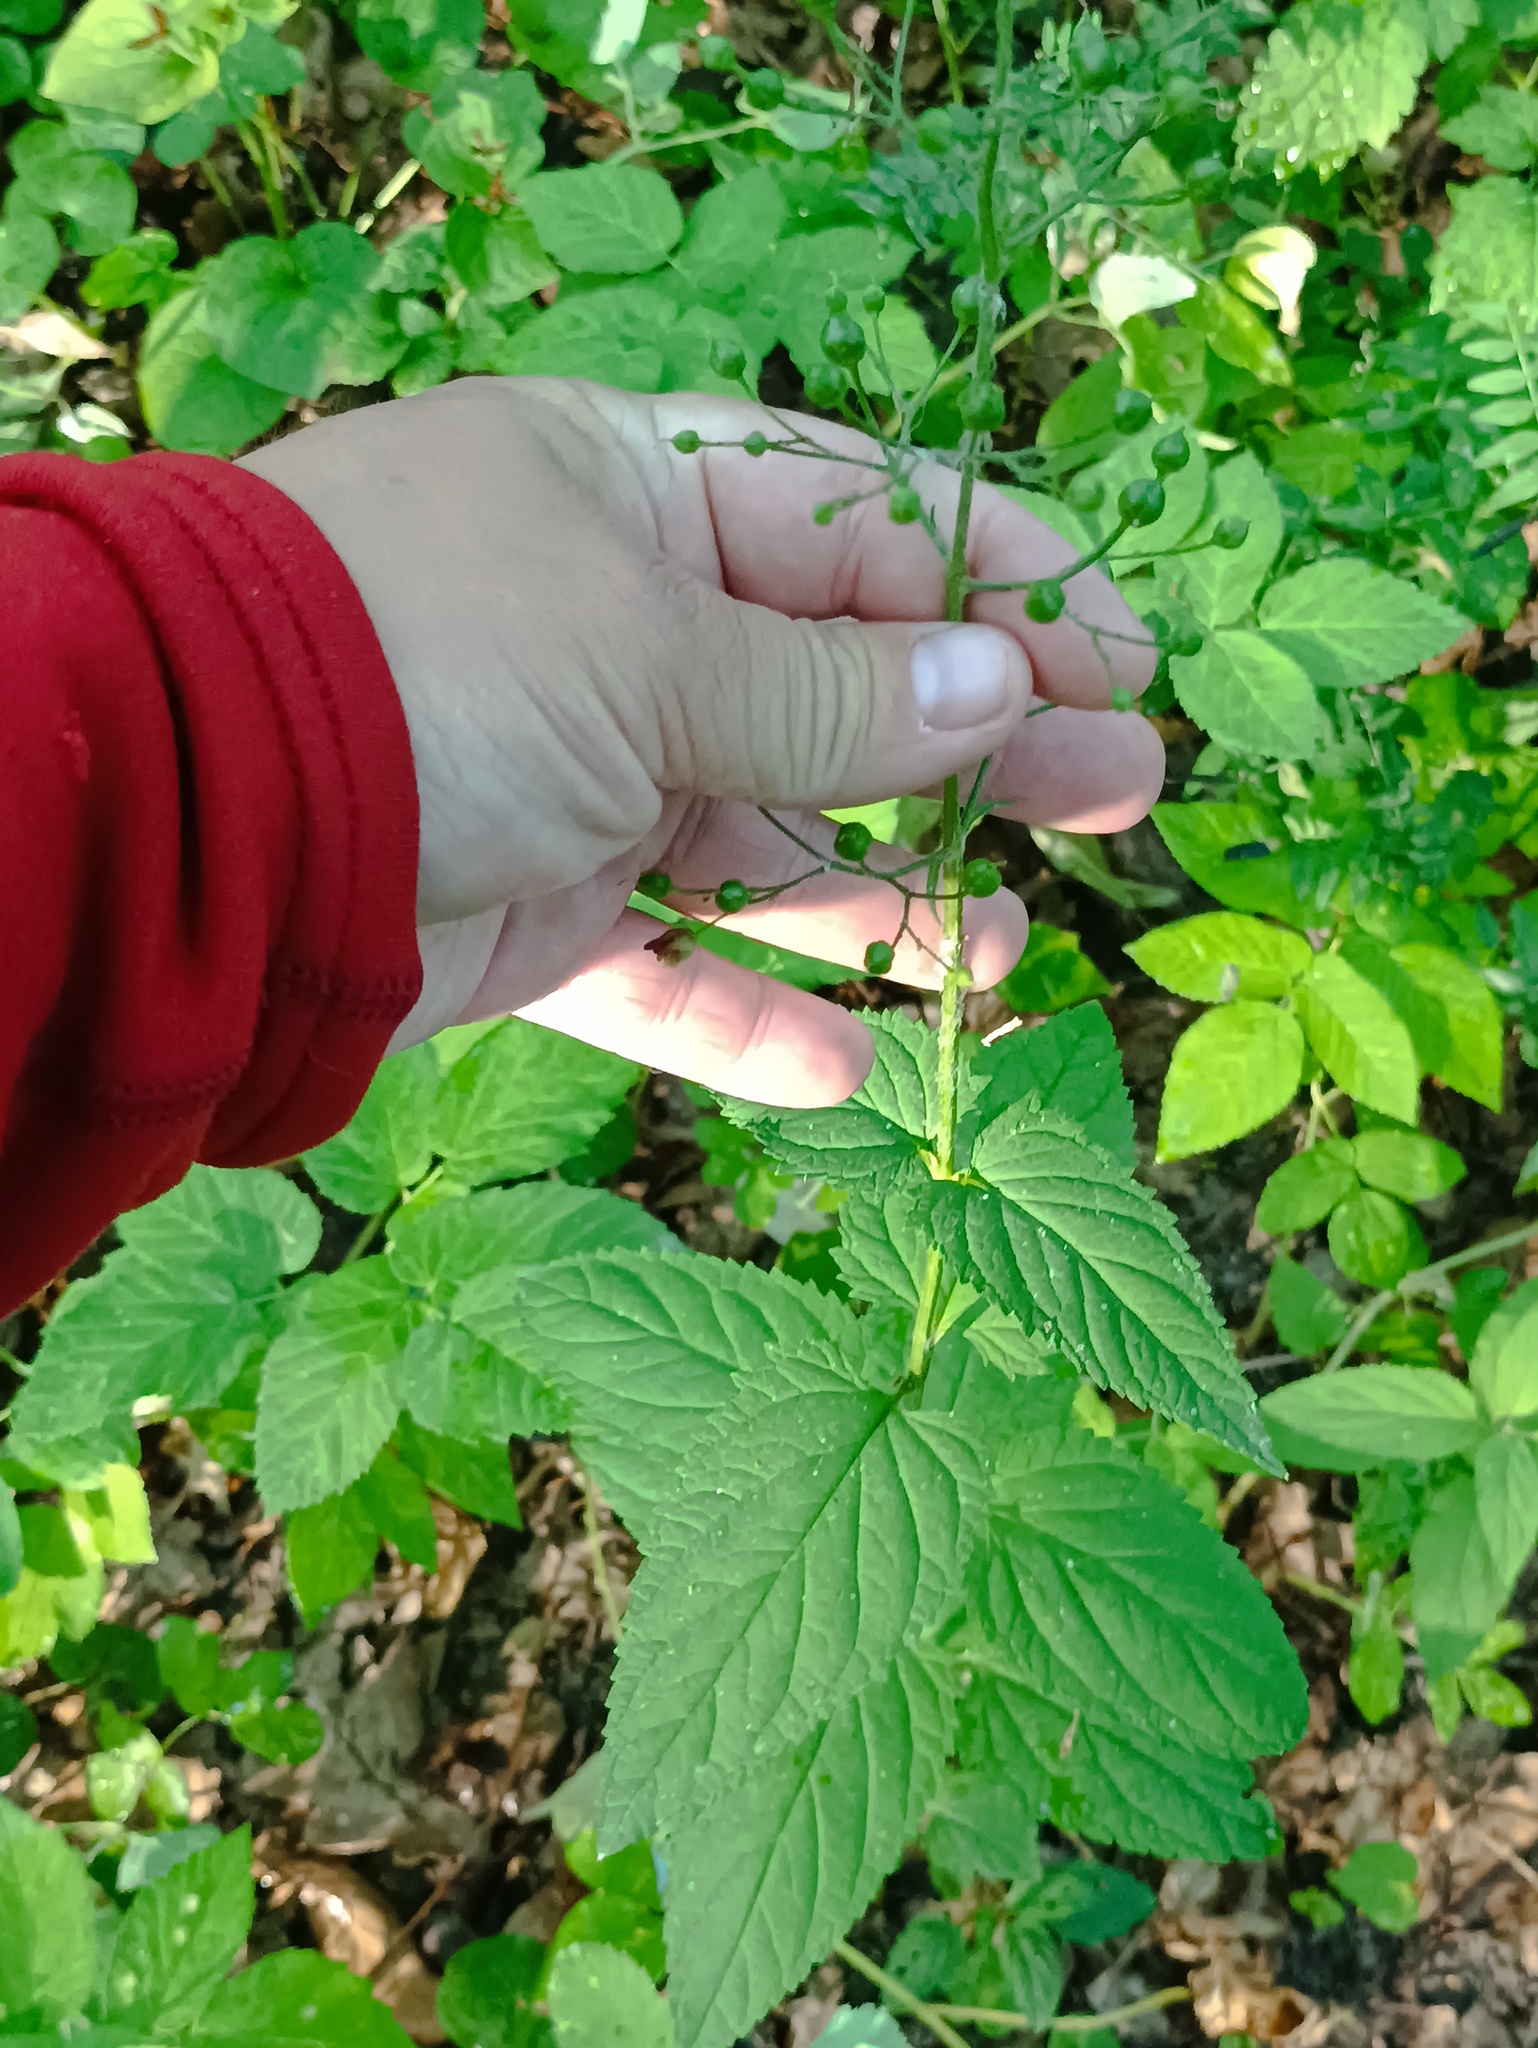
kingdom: Plantae
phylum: Tracheophyta
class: Magnoliopsida
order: Lamiales
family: Scrophulariaceae
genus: Scrophularia
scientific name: Scrophularia nodosa
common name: Common figwort
